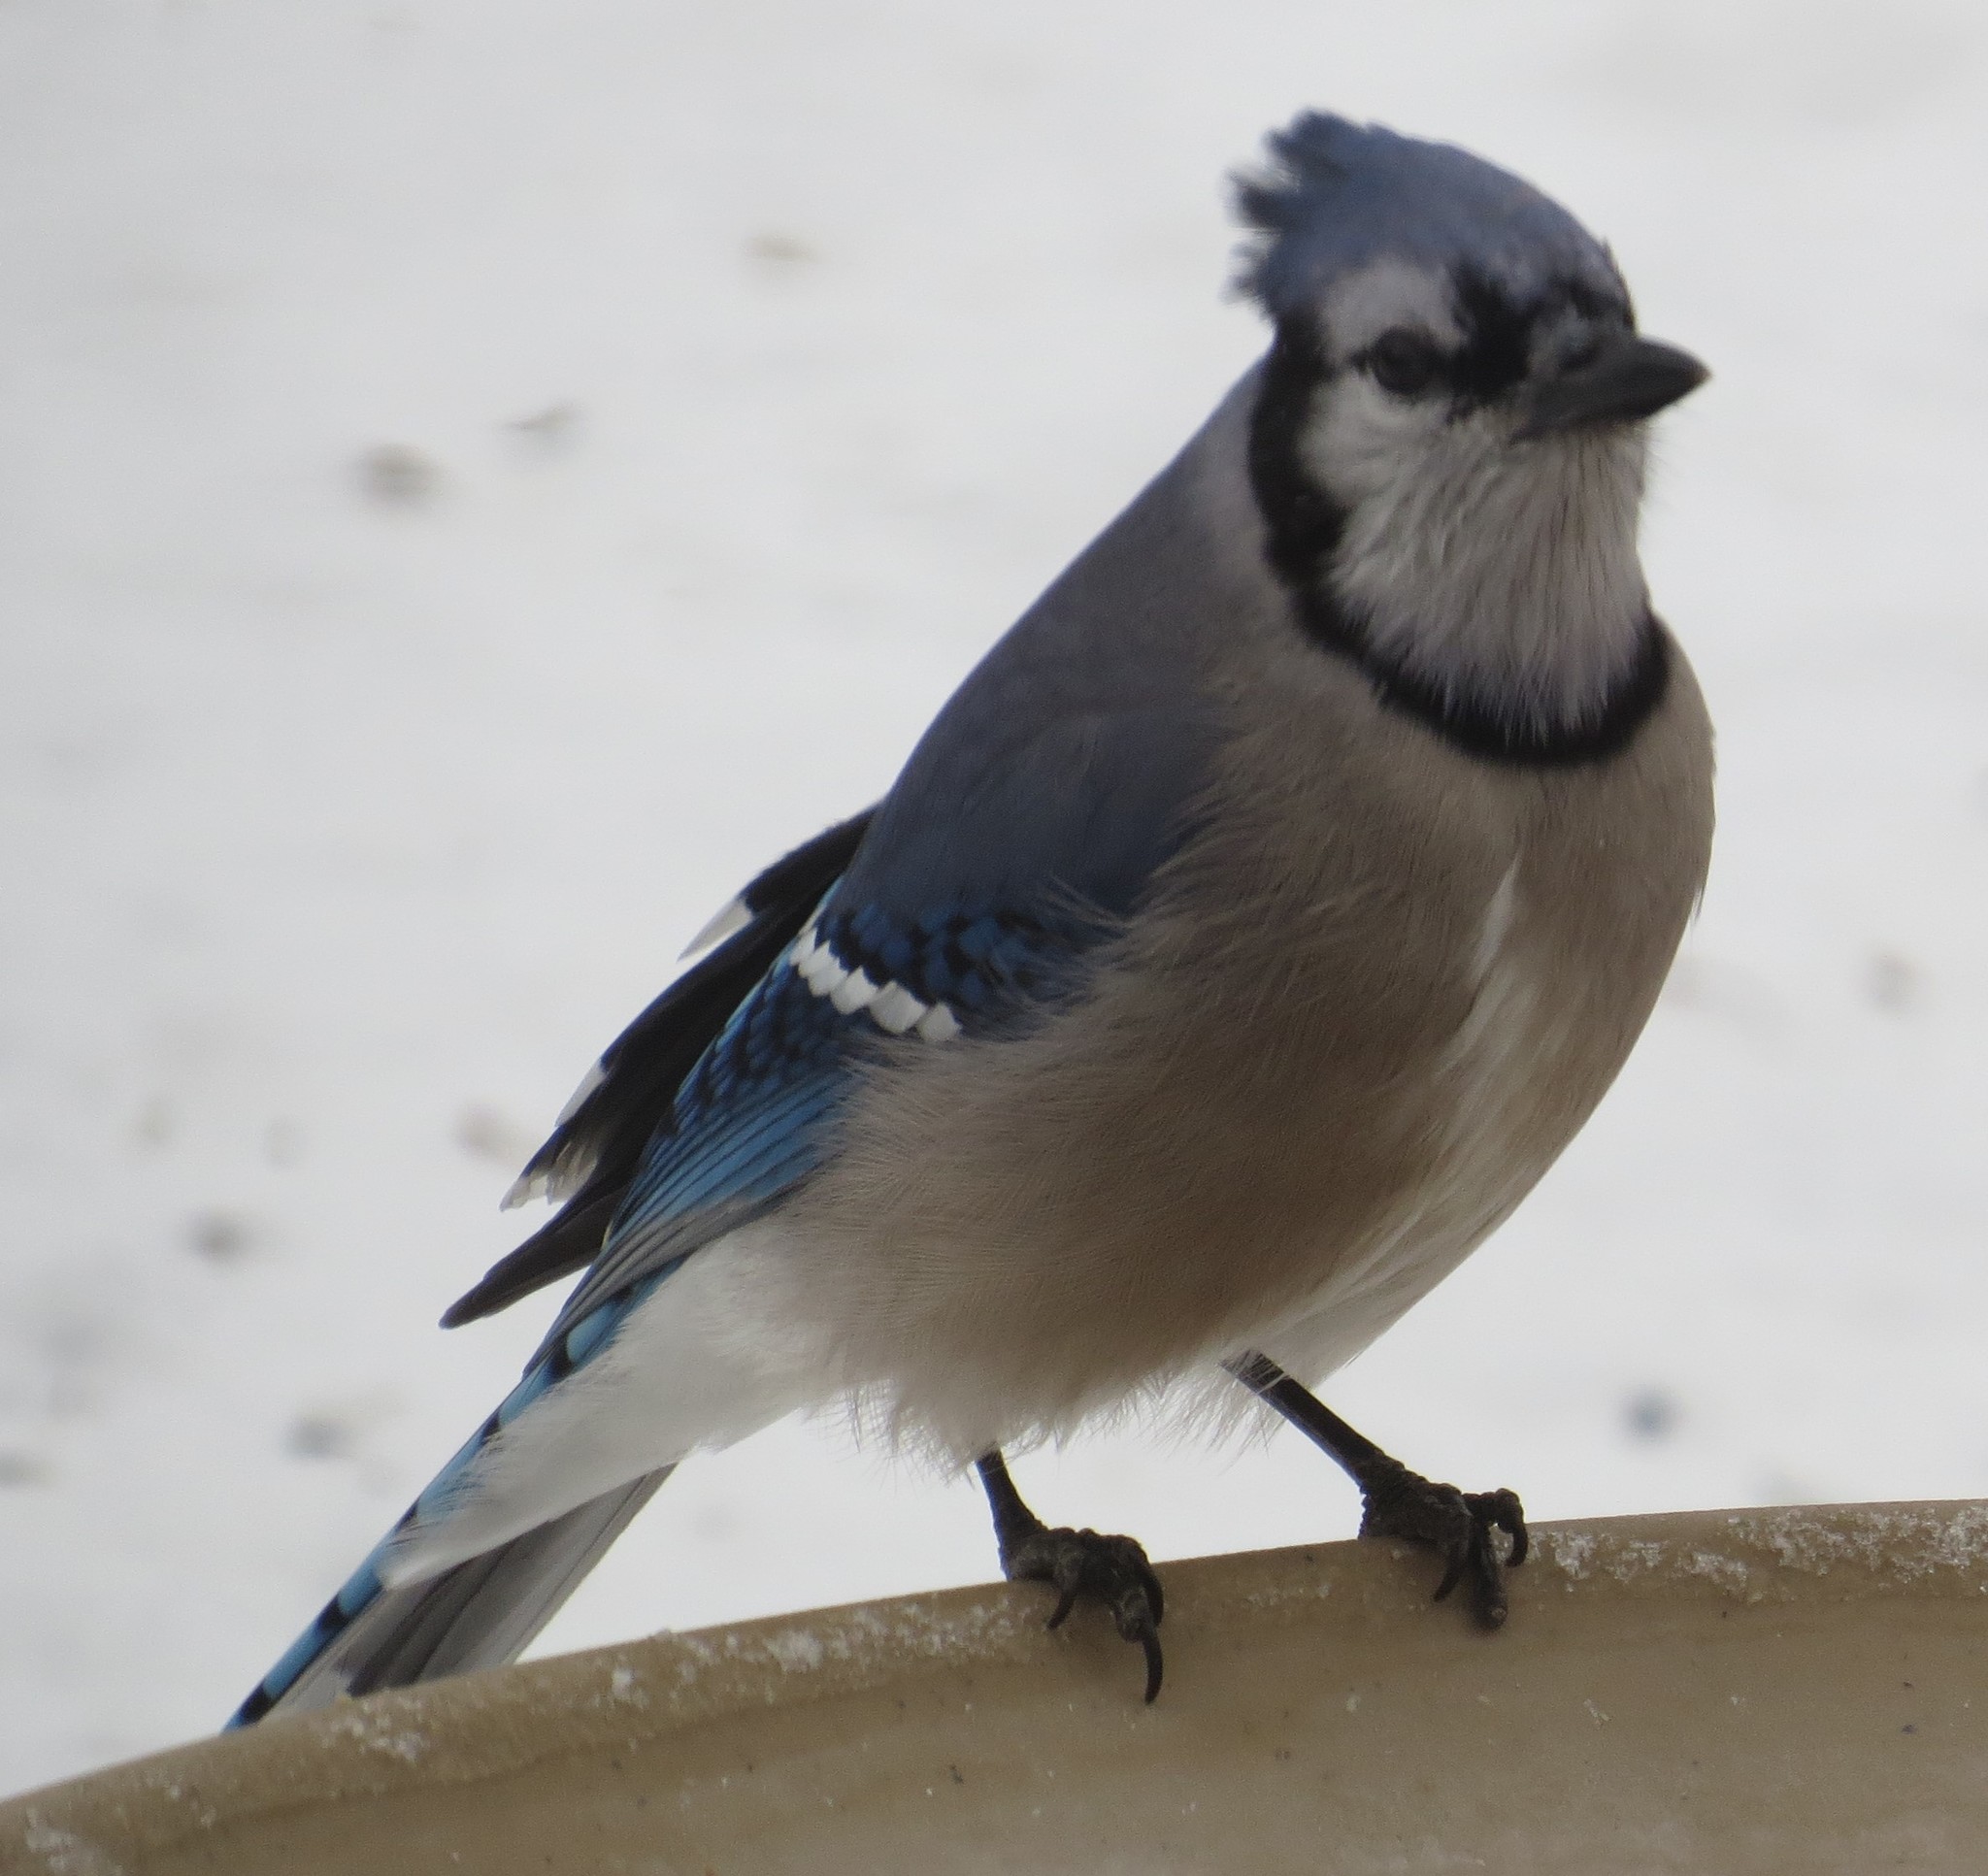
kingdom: Animalia
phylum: Chordata
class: Aves
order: Passeriformes
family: Corvidae
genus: Cyanocitta
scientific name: Cyanocitta cristata
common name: Blue jay
